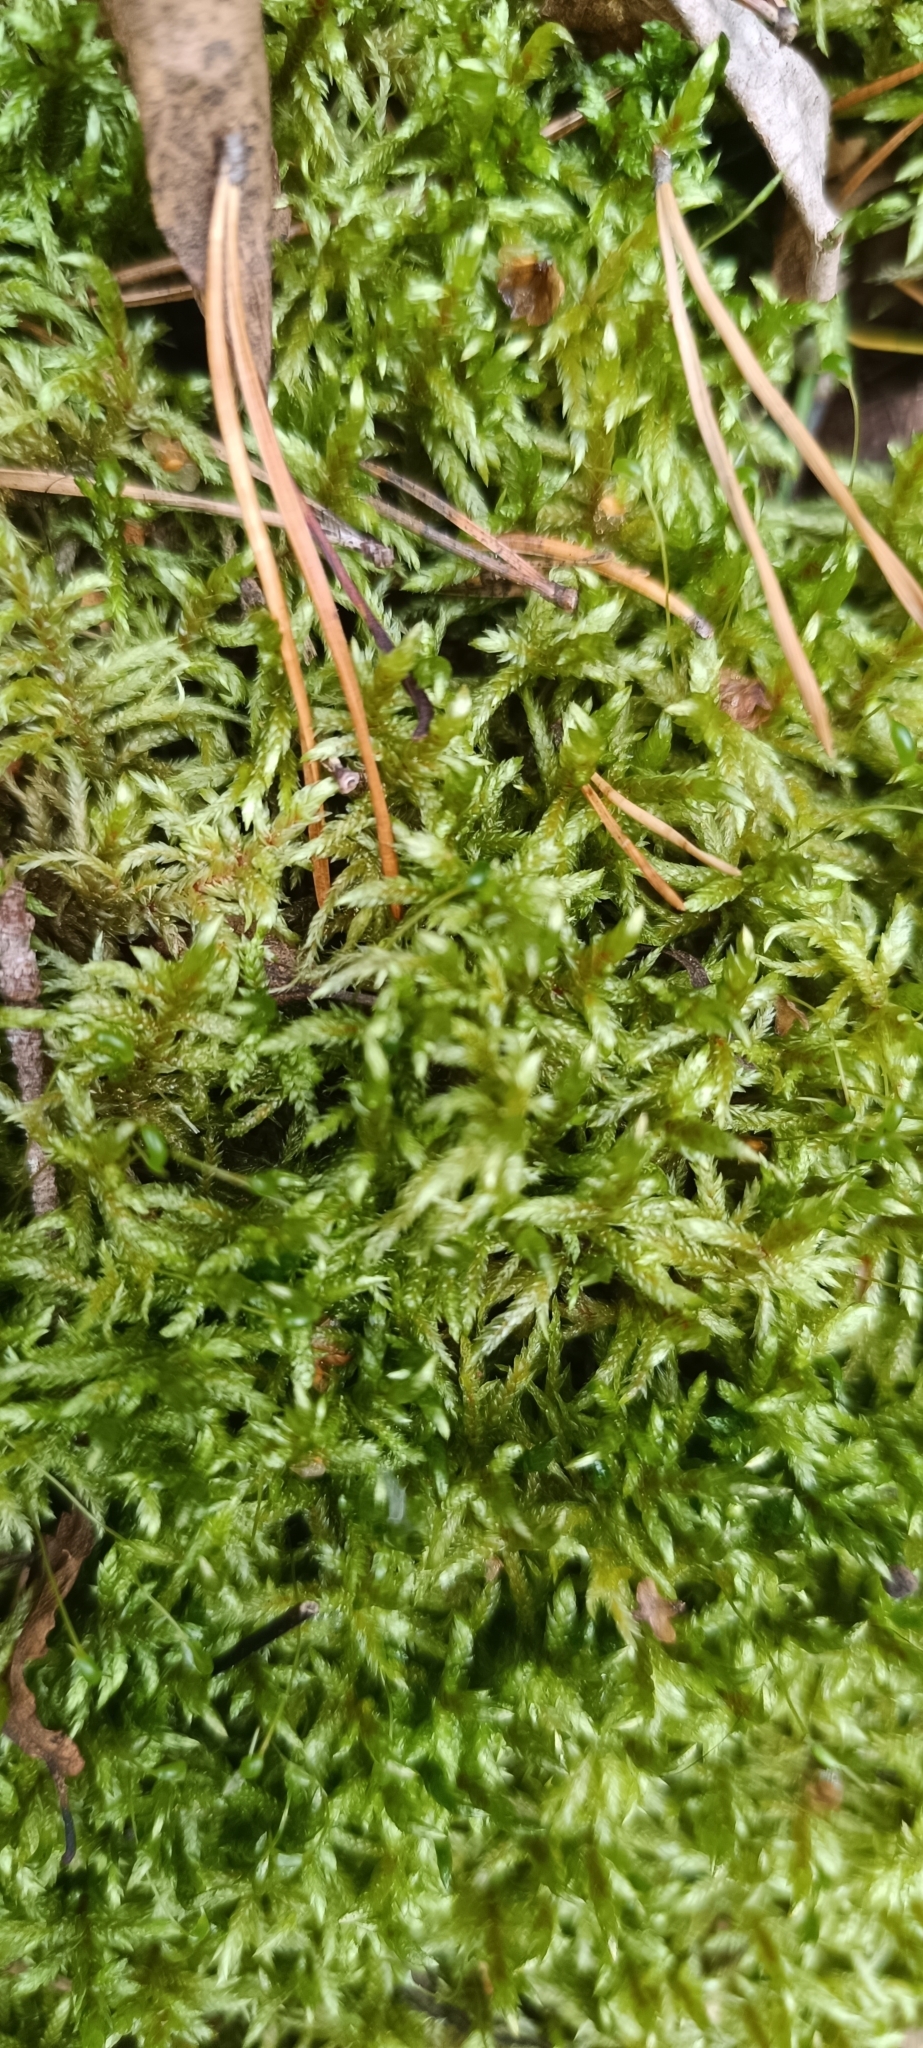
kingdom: Plantae
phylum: Bryophyta
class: Bryopsida
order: Hypnales
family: Hylocomiaceae
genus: Pleurozium
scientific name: Pleurozium schreberi
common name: Red-stemmed feather moss
